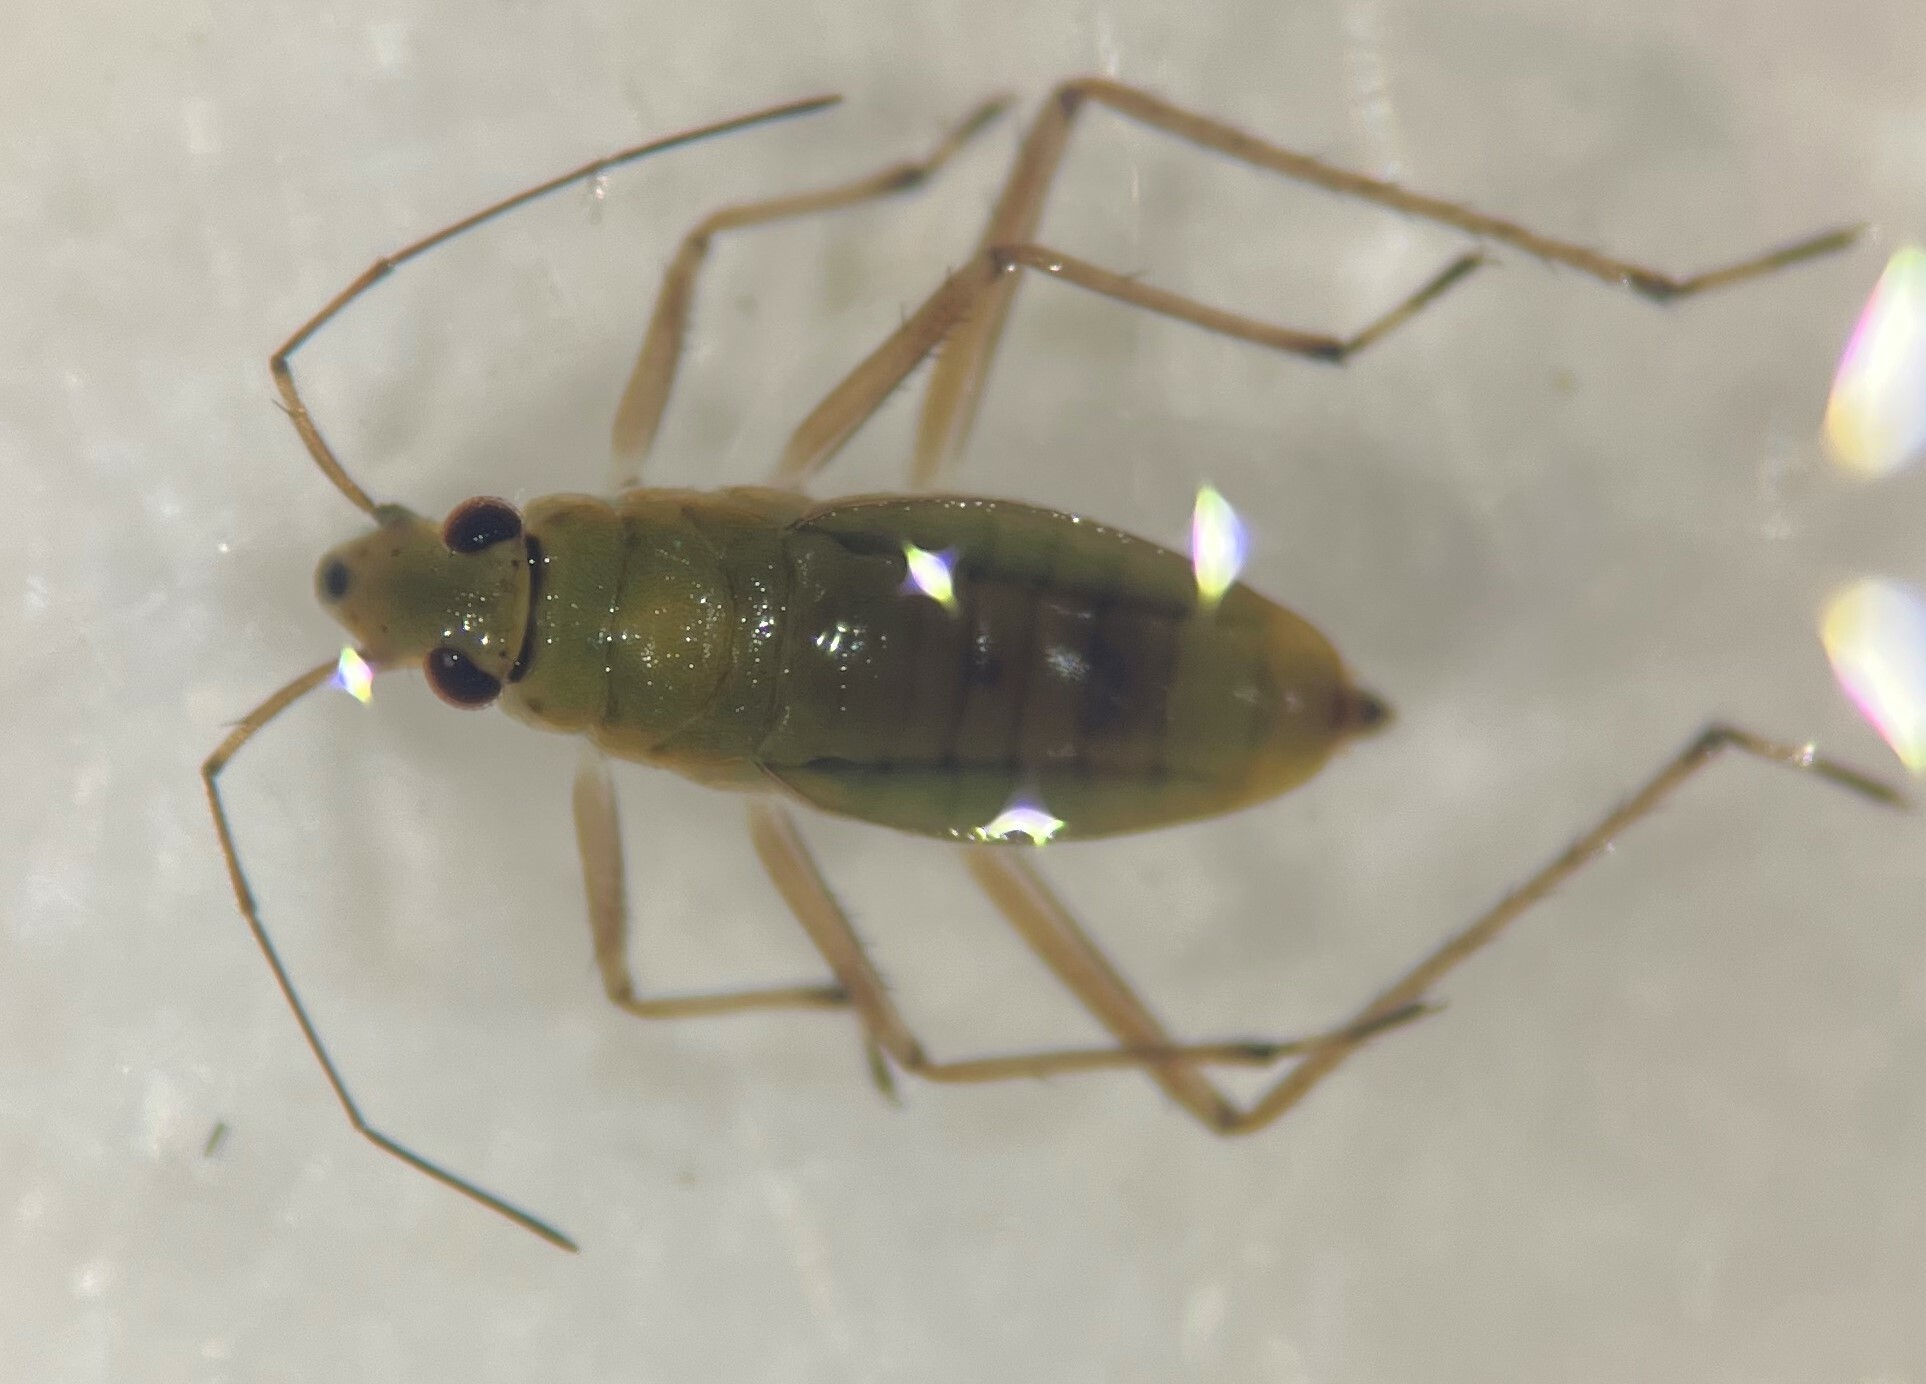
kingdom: Animalia
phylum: Arthropoda
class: Insecta
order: Hemiptera
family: Mesoveliidae
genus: Mesovelia
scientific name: Mesovelia mulsanti
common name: Water treaders
